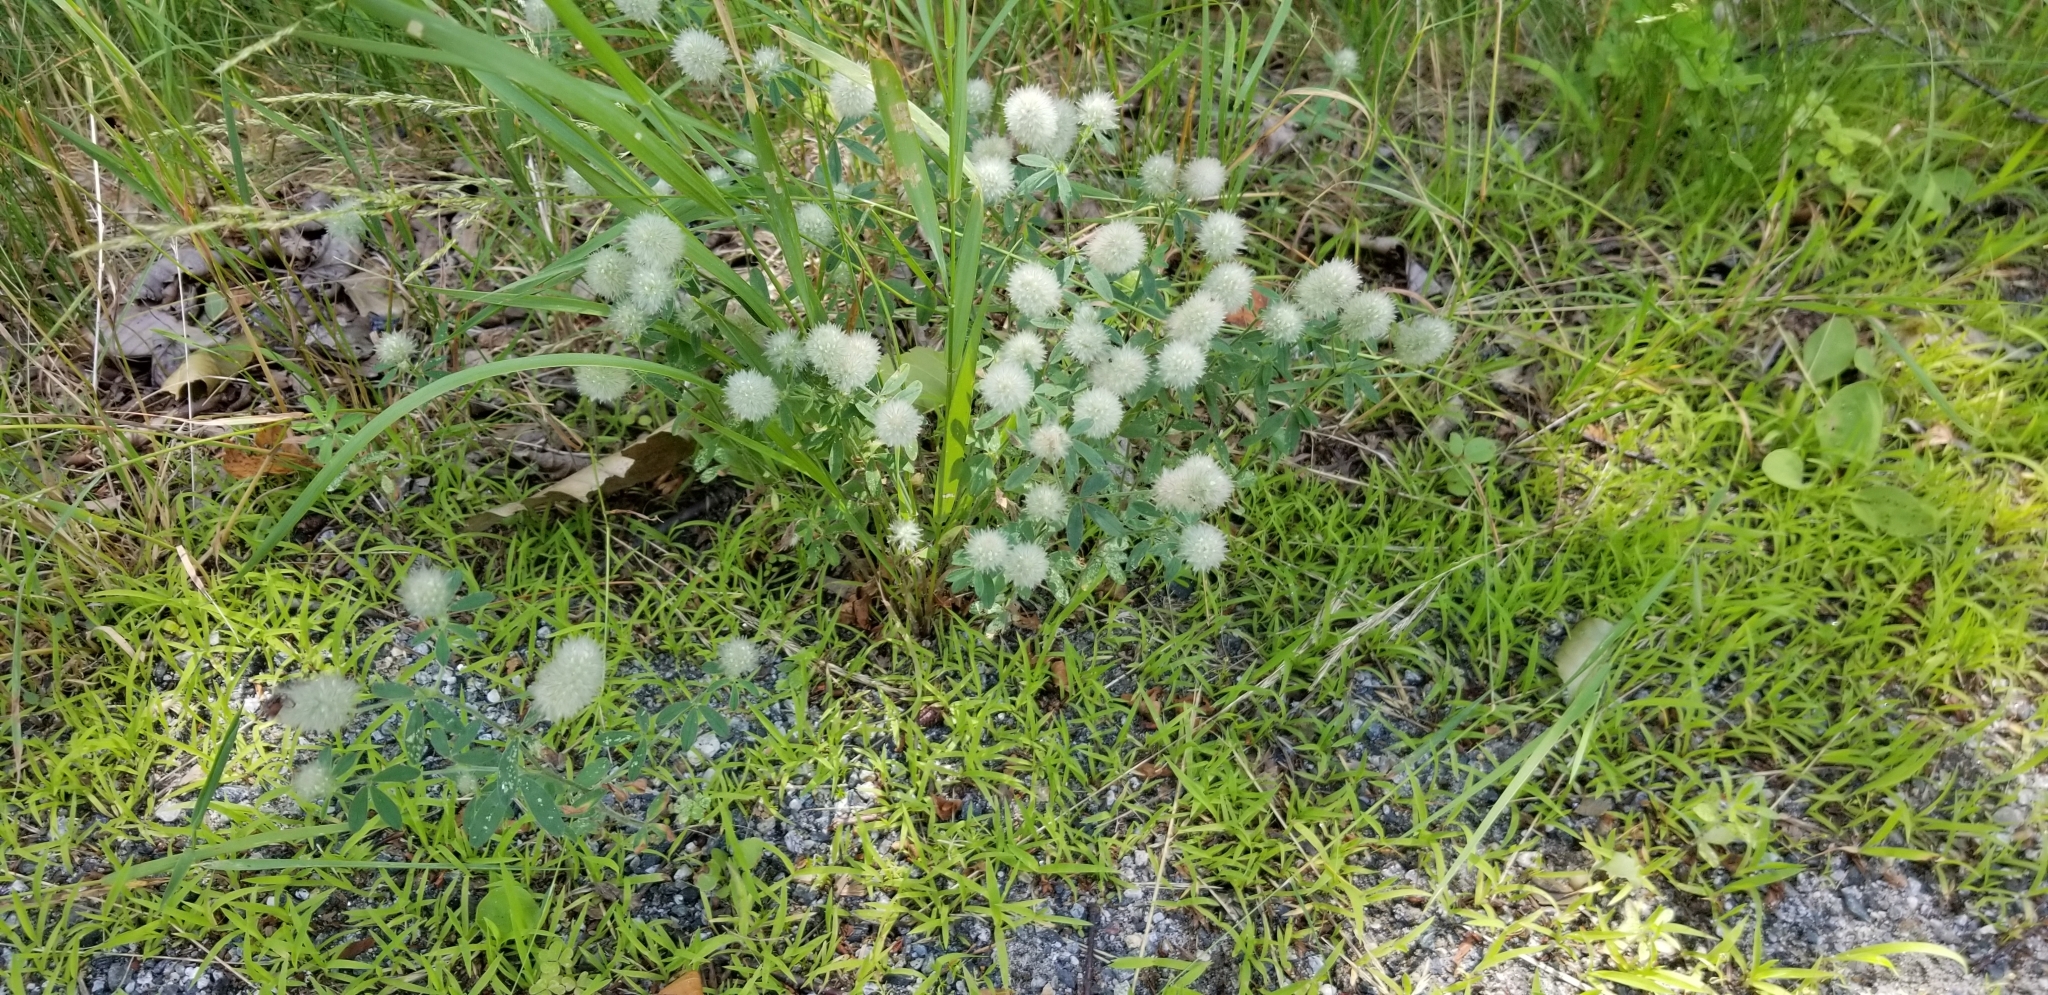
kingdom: Plantae
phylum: Tracheophyta
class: Magnoliopsida
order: Fabales
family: Fabaceae
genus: Trifolium
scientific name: Trifolium arvense
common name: Hare's-foot clover
